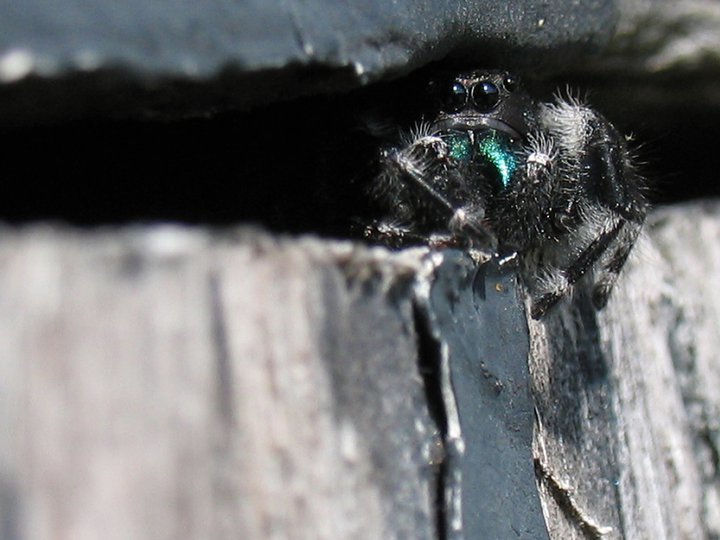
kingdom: Animalia
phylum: Arthropoda
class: Arachnida
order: Araneae
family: Salticidae
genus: Phidippus
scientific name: Phidippus audax
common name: Bold jumper
